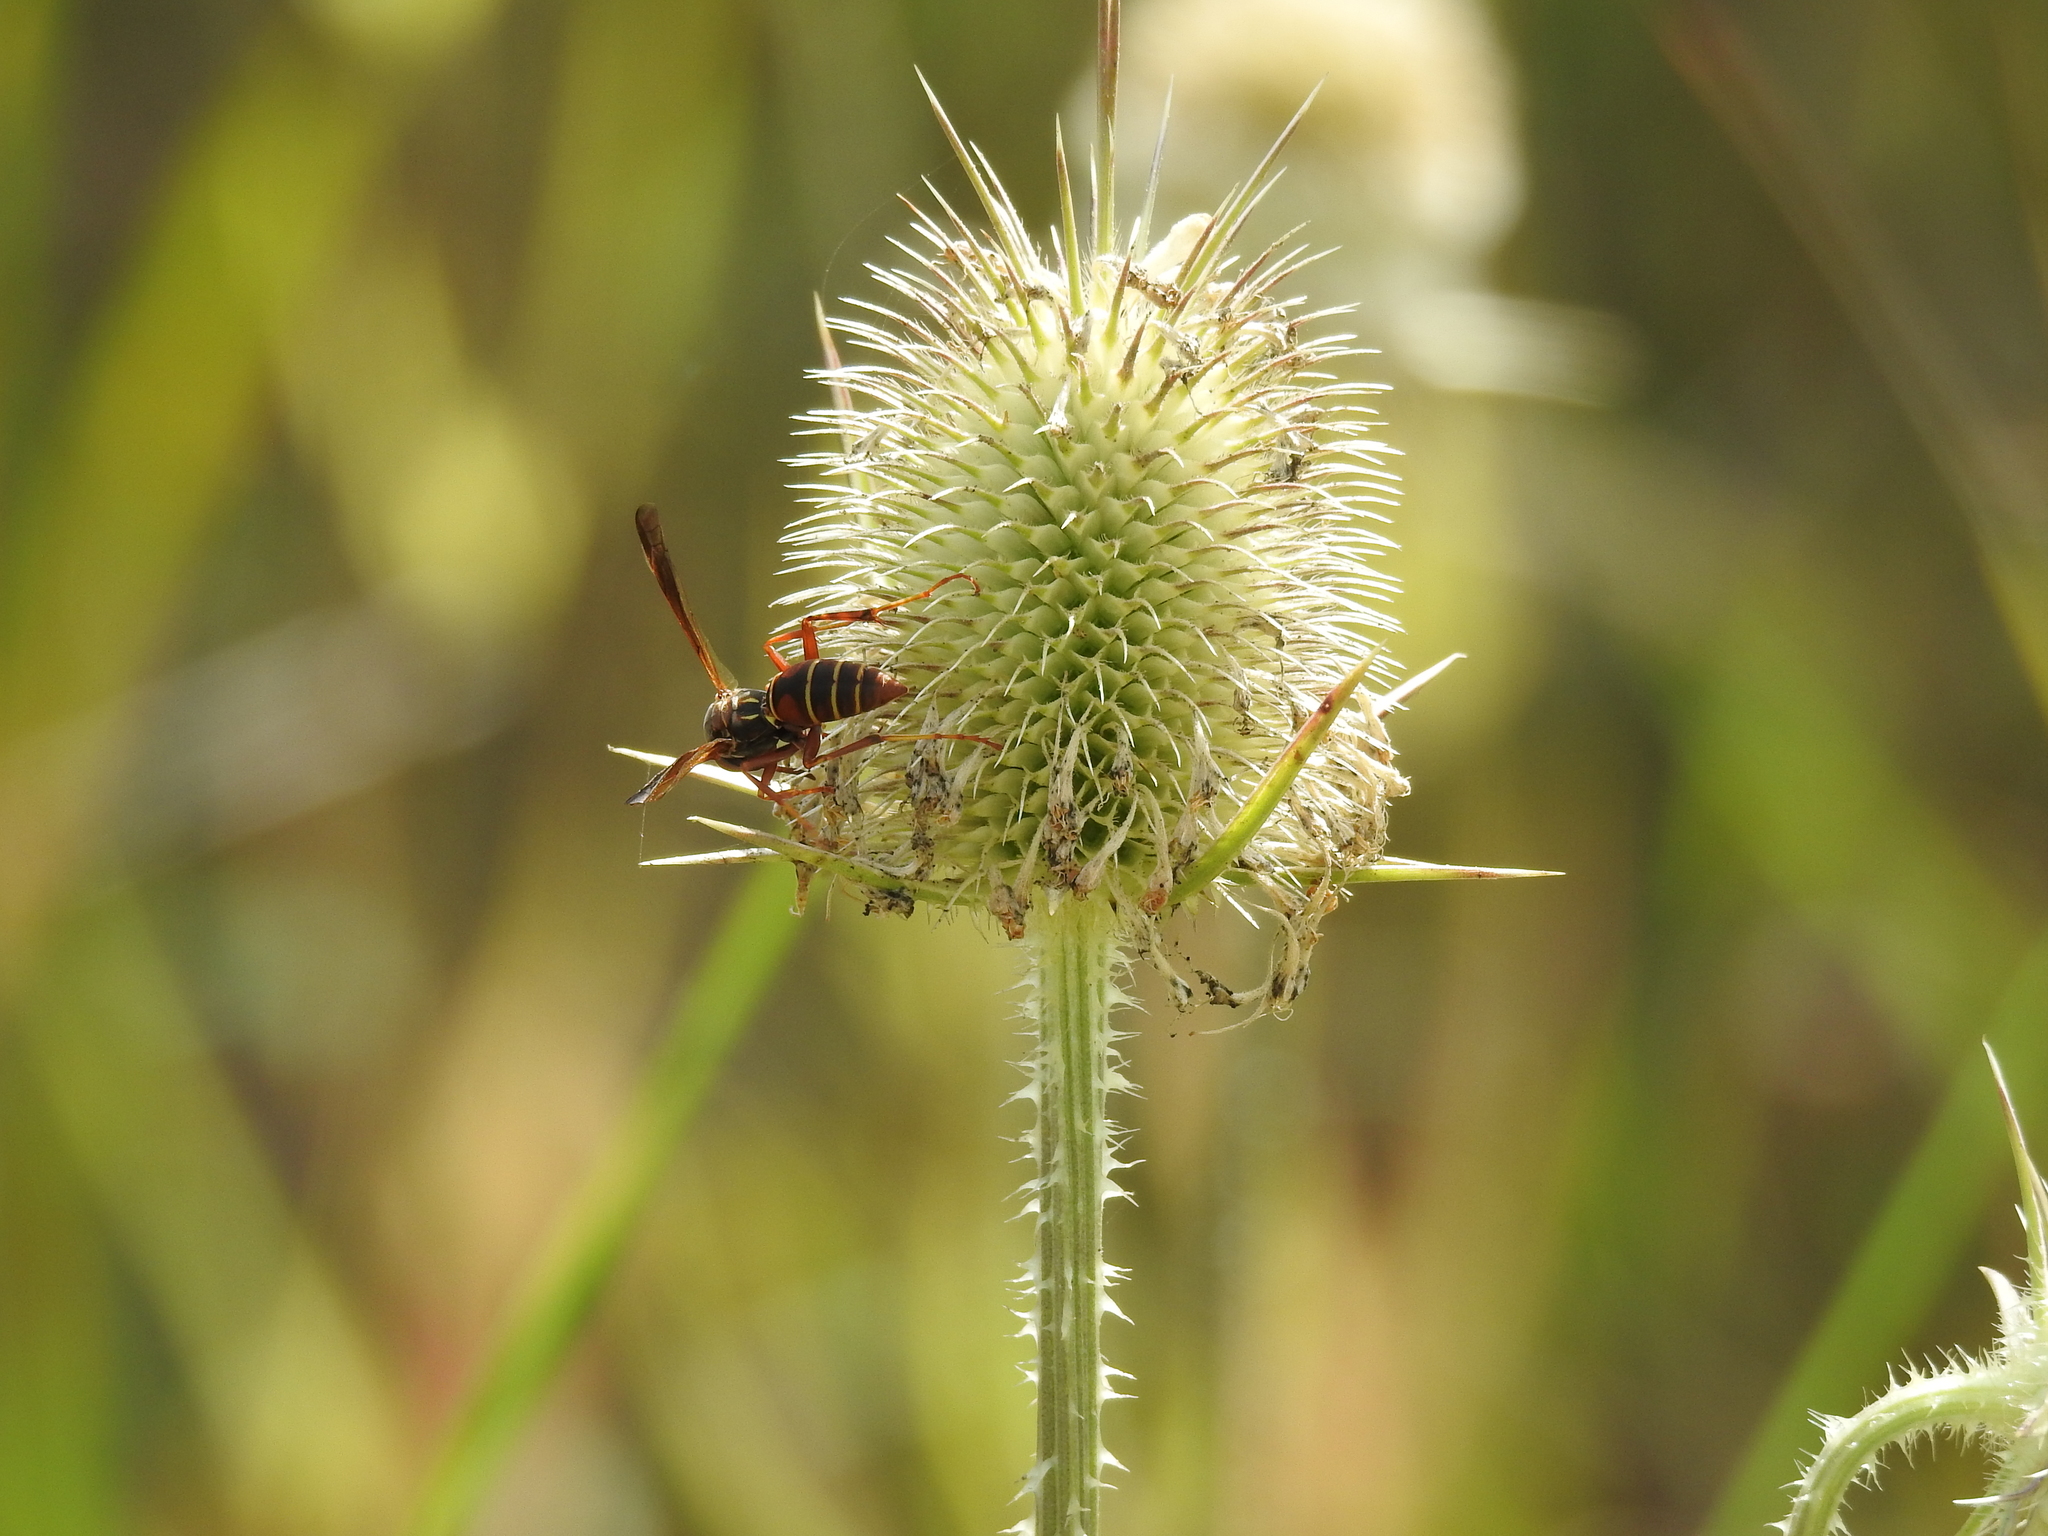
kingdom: Animalia
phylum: Arthropoda
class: Insecta
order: Hymenoptera
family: Eumenidae
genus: Polistes
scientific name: Polistes fuscatus
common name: Dark paper wasp
